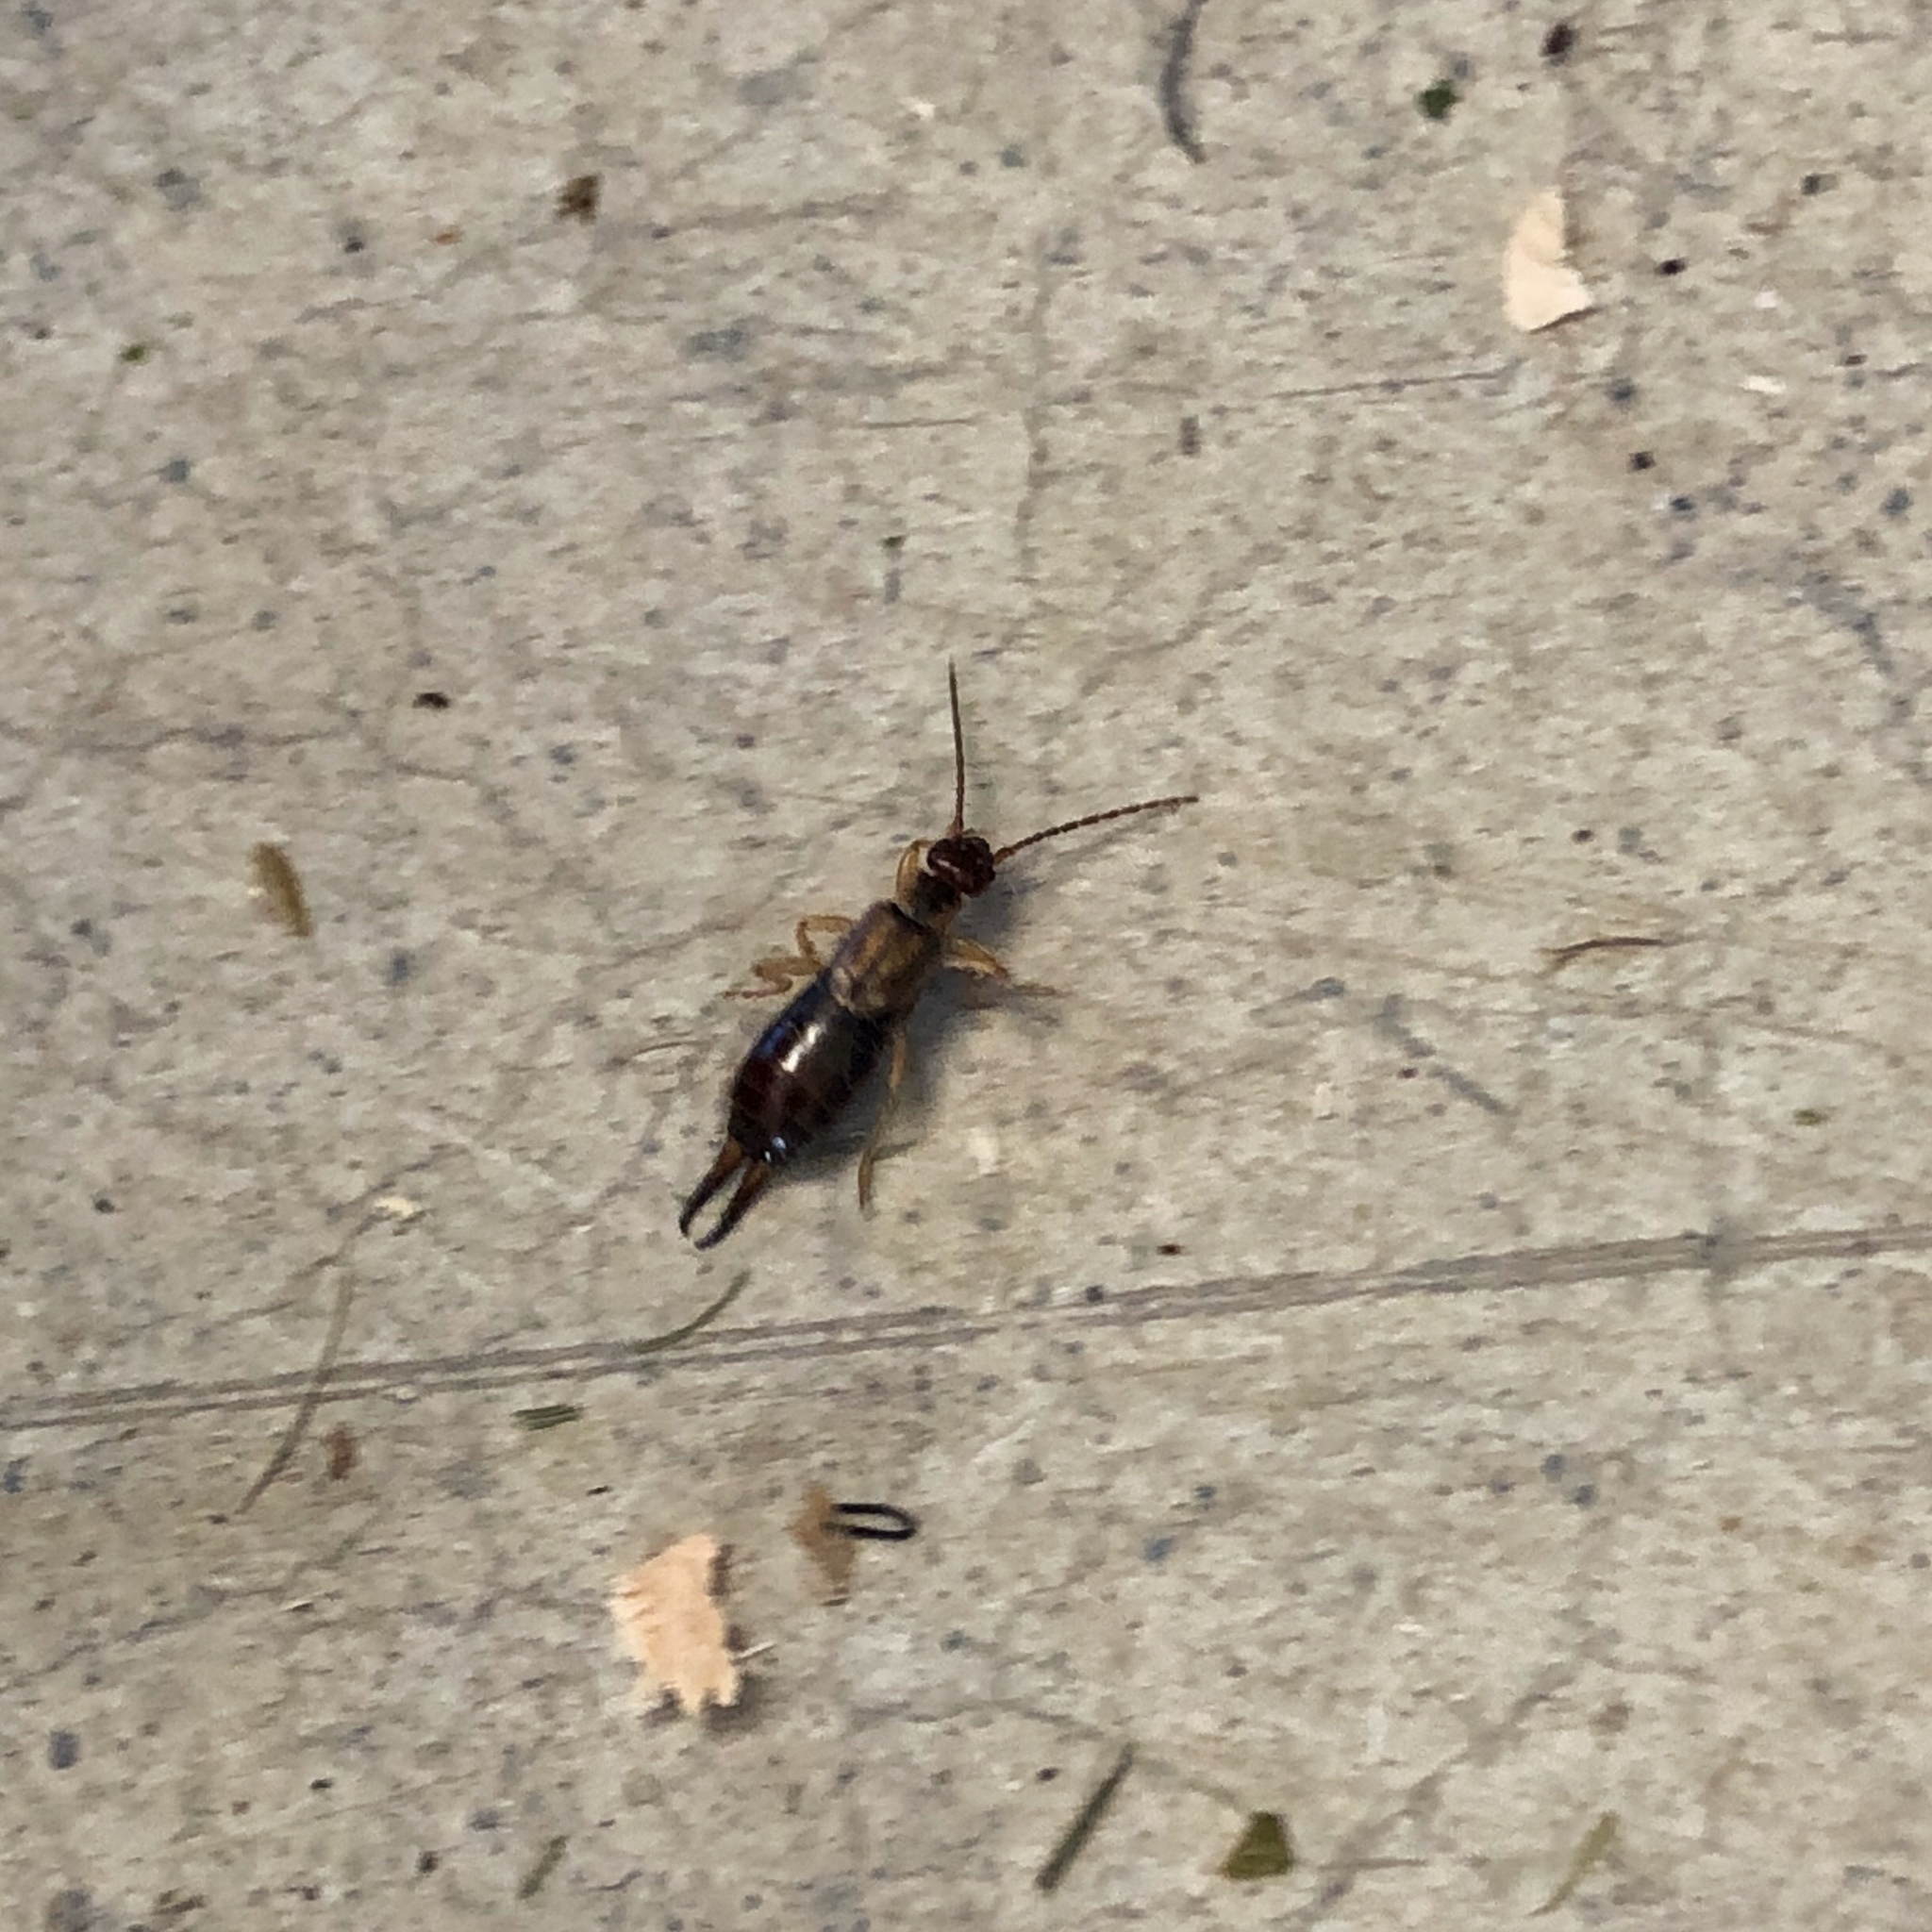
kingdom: Animalia
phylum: Arthropoda
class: Insecta
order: Dermaptera
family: Forficulidae
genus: Forficula
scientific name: Forficula
